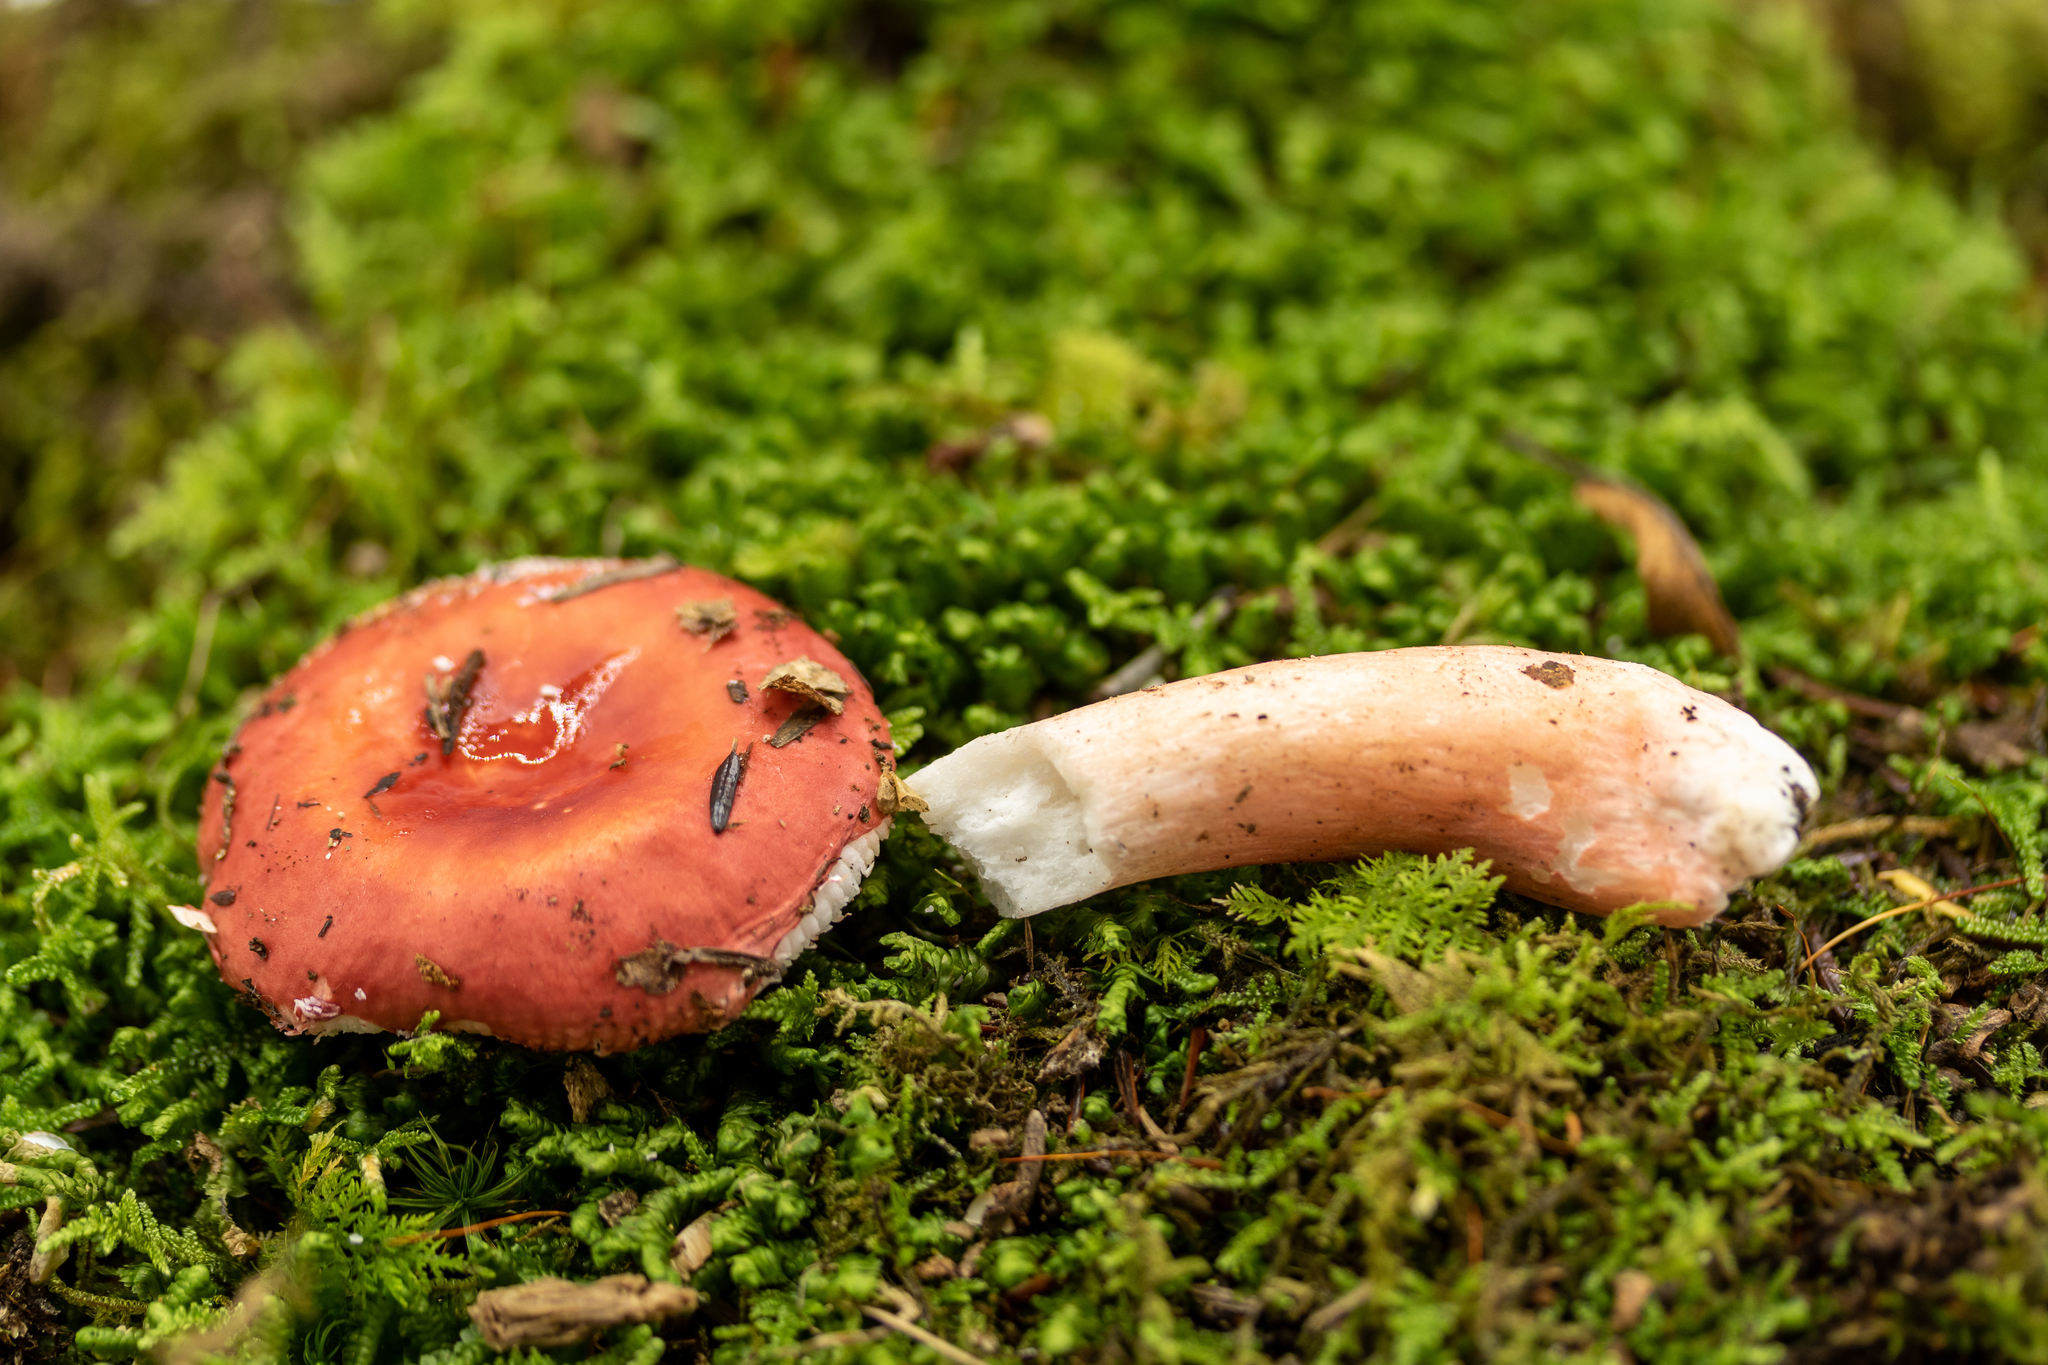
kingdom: Fungi
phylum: Basidiomycota
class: Agaricomycetes
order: Russulales
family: Russulaceae
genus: Russula
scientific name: Russula peckii
